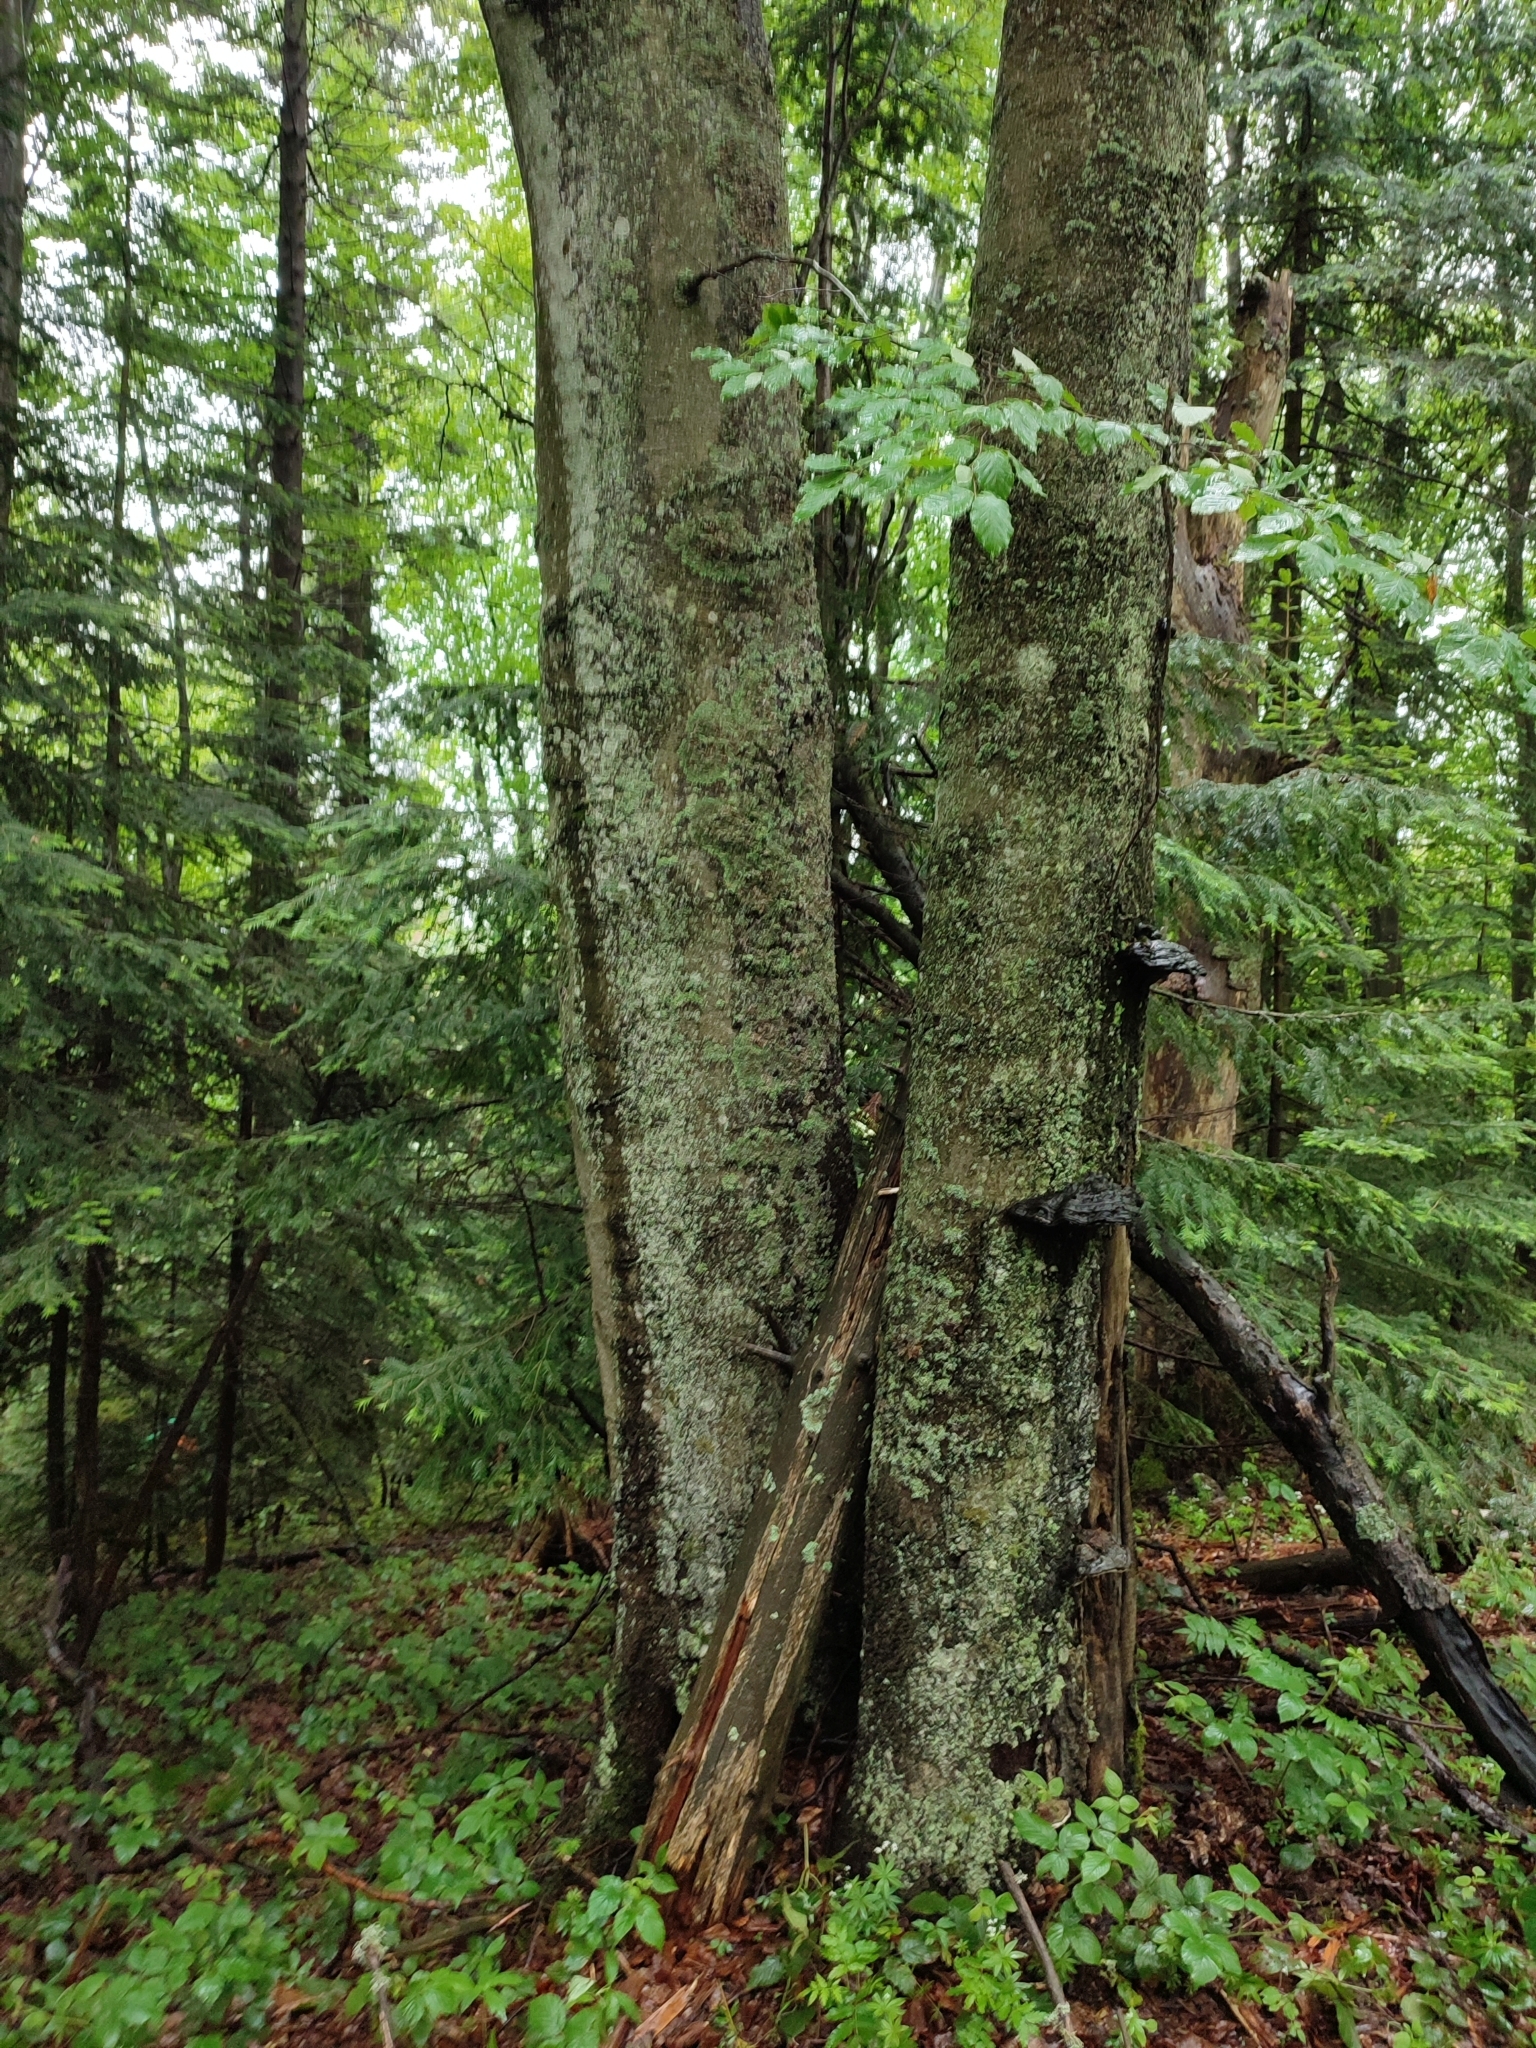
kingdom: Plantae
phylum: Tracheophyta
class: Magnoliopsida
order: Fagales
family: Fagaceae
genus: Fagus
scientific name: Fagus sylvatica
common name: Beech
